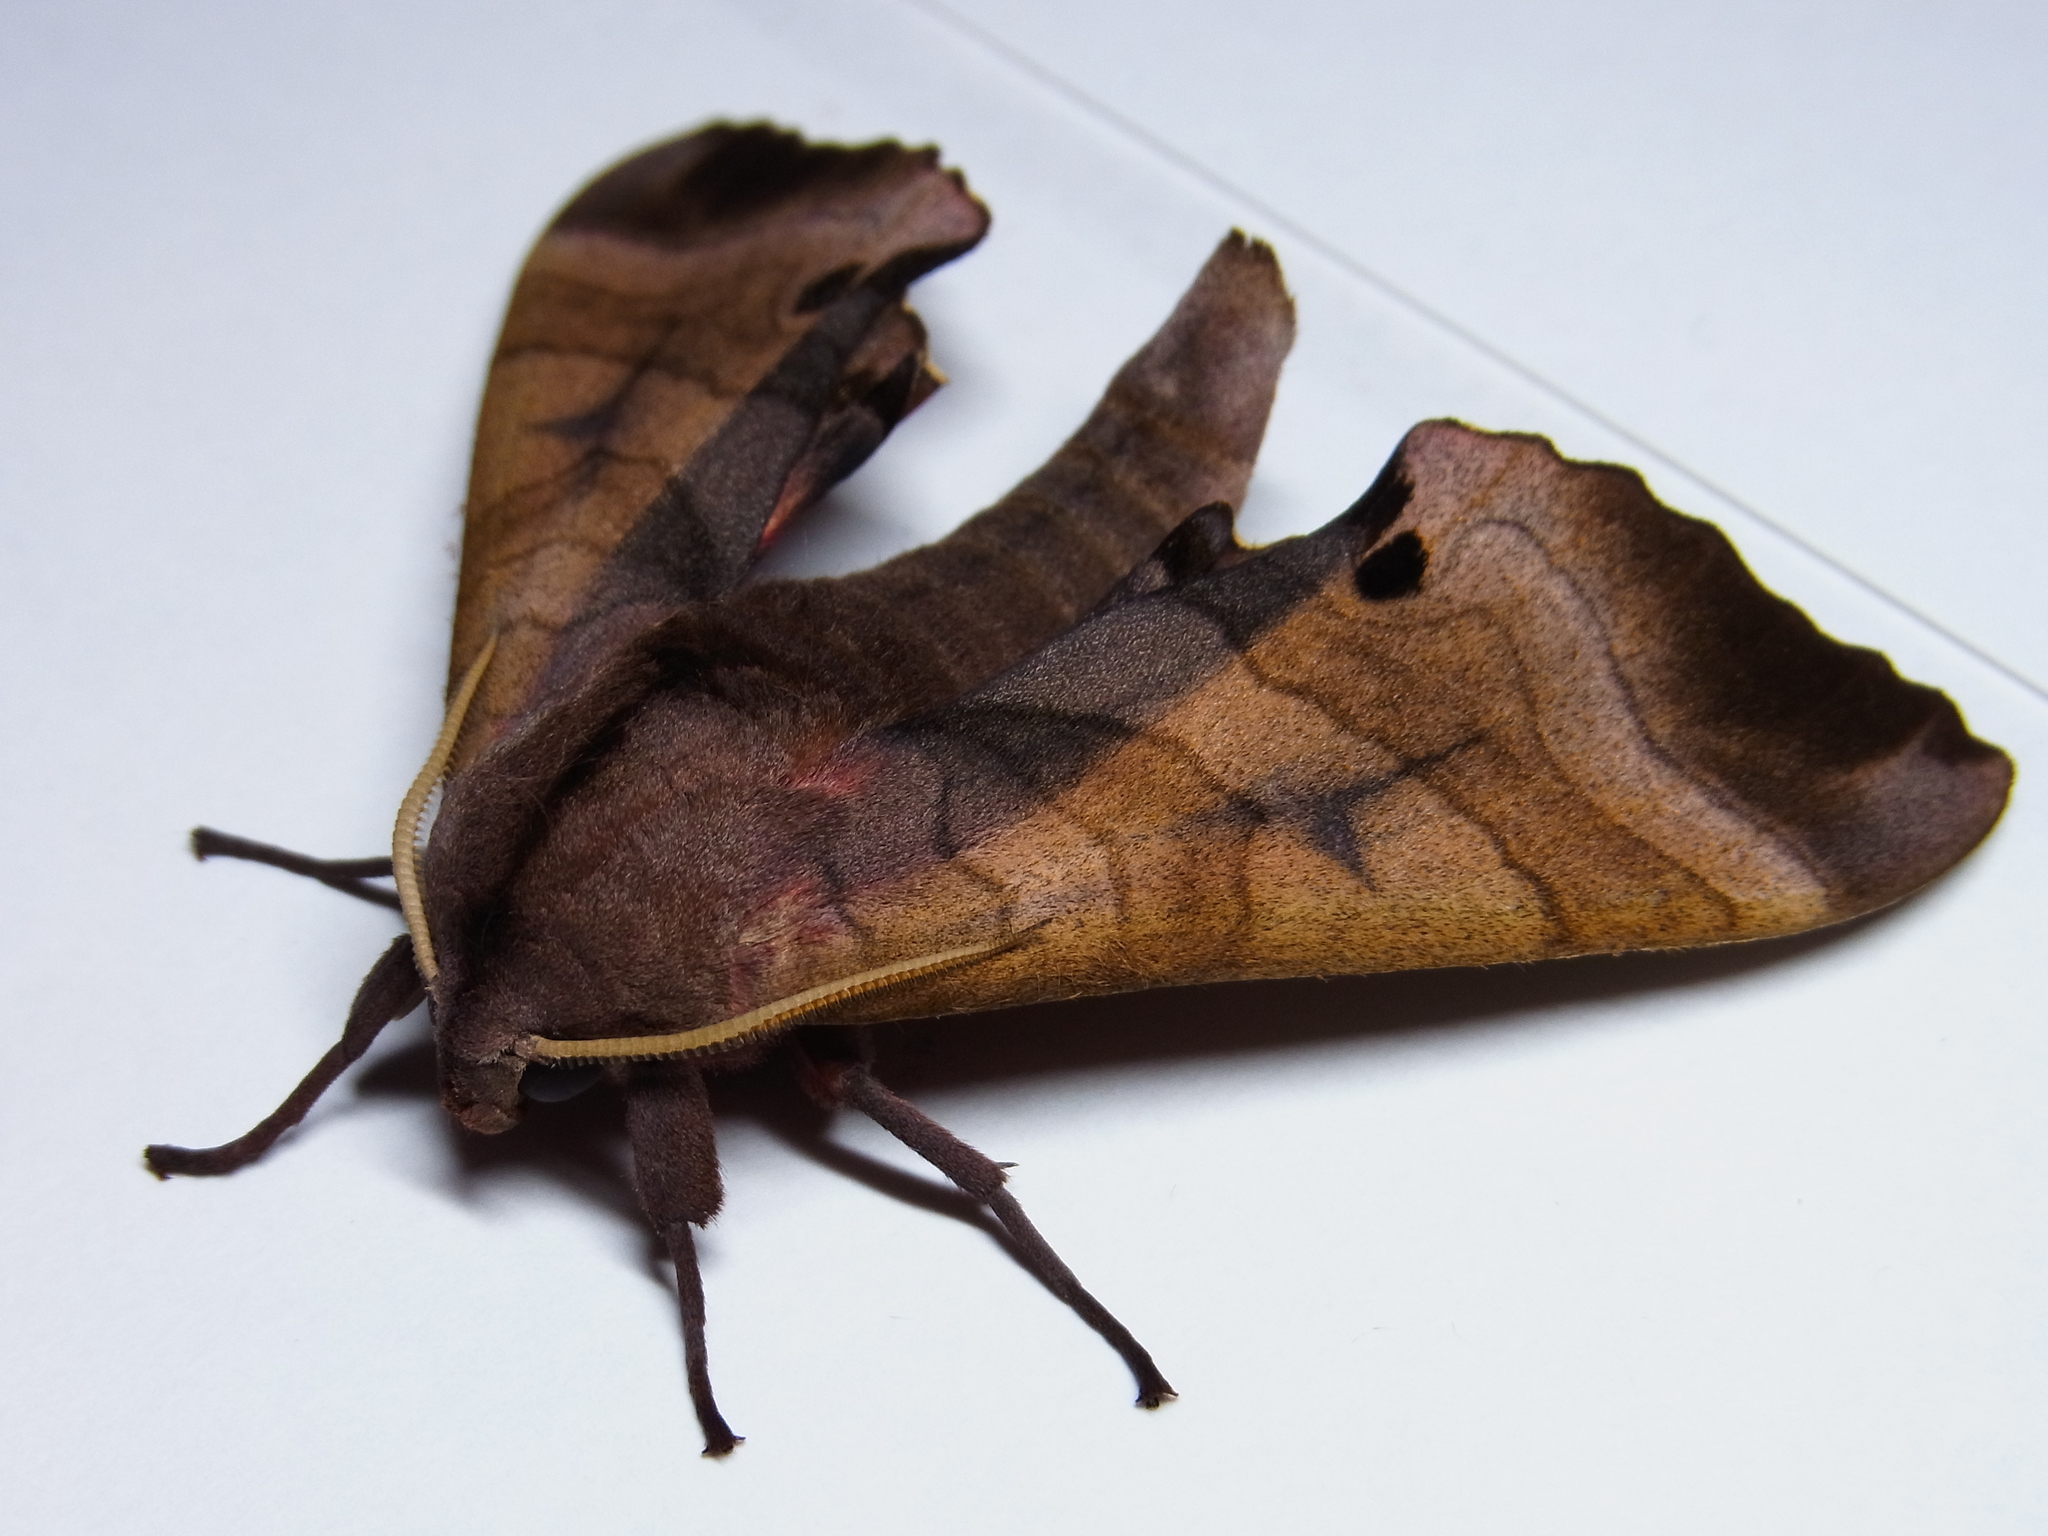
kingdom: Animalia
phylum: Arthropoda
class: Insecta
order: Lepidoptera
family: Sphingidae
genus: Marumba
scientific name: Marumba echephron
